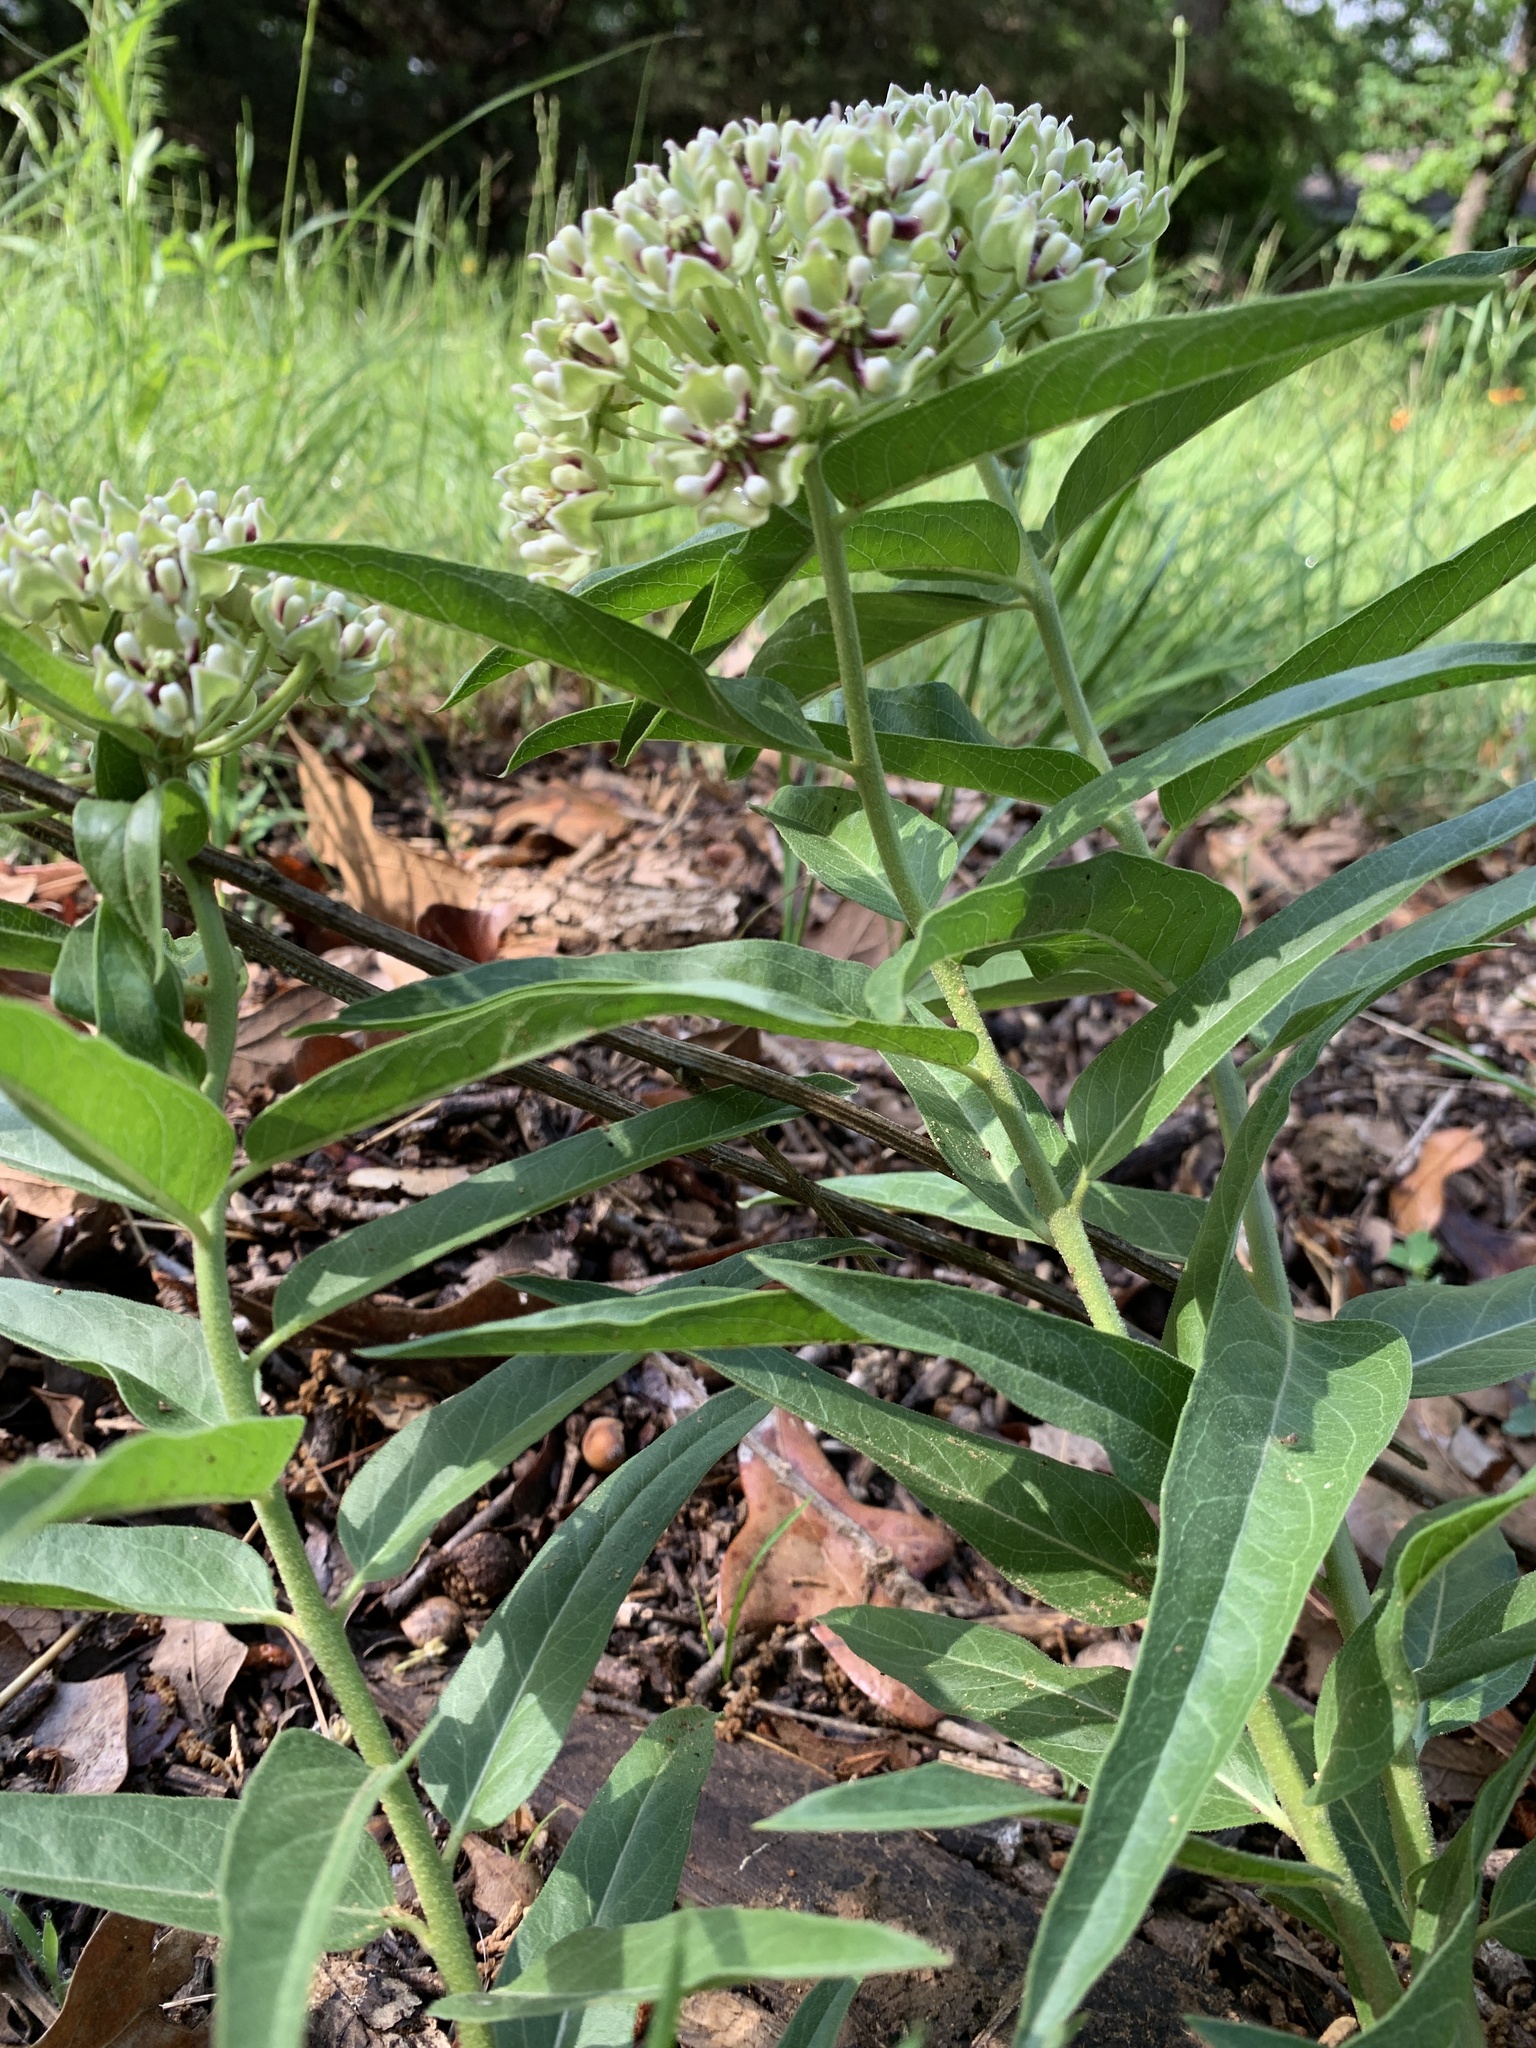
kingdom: Plantae
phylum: Tracheophyta
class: Magnoliopsida
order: Gentianales
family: Apocynaceae
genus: Asclepias
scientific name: Asclepias asperula
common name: Antelope horns
